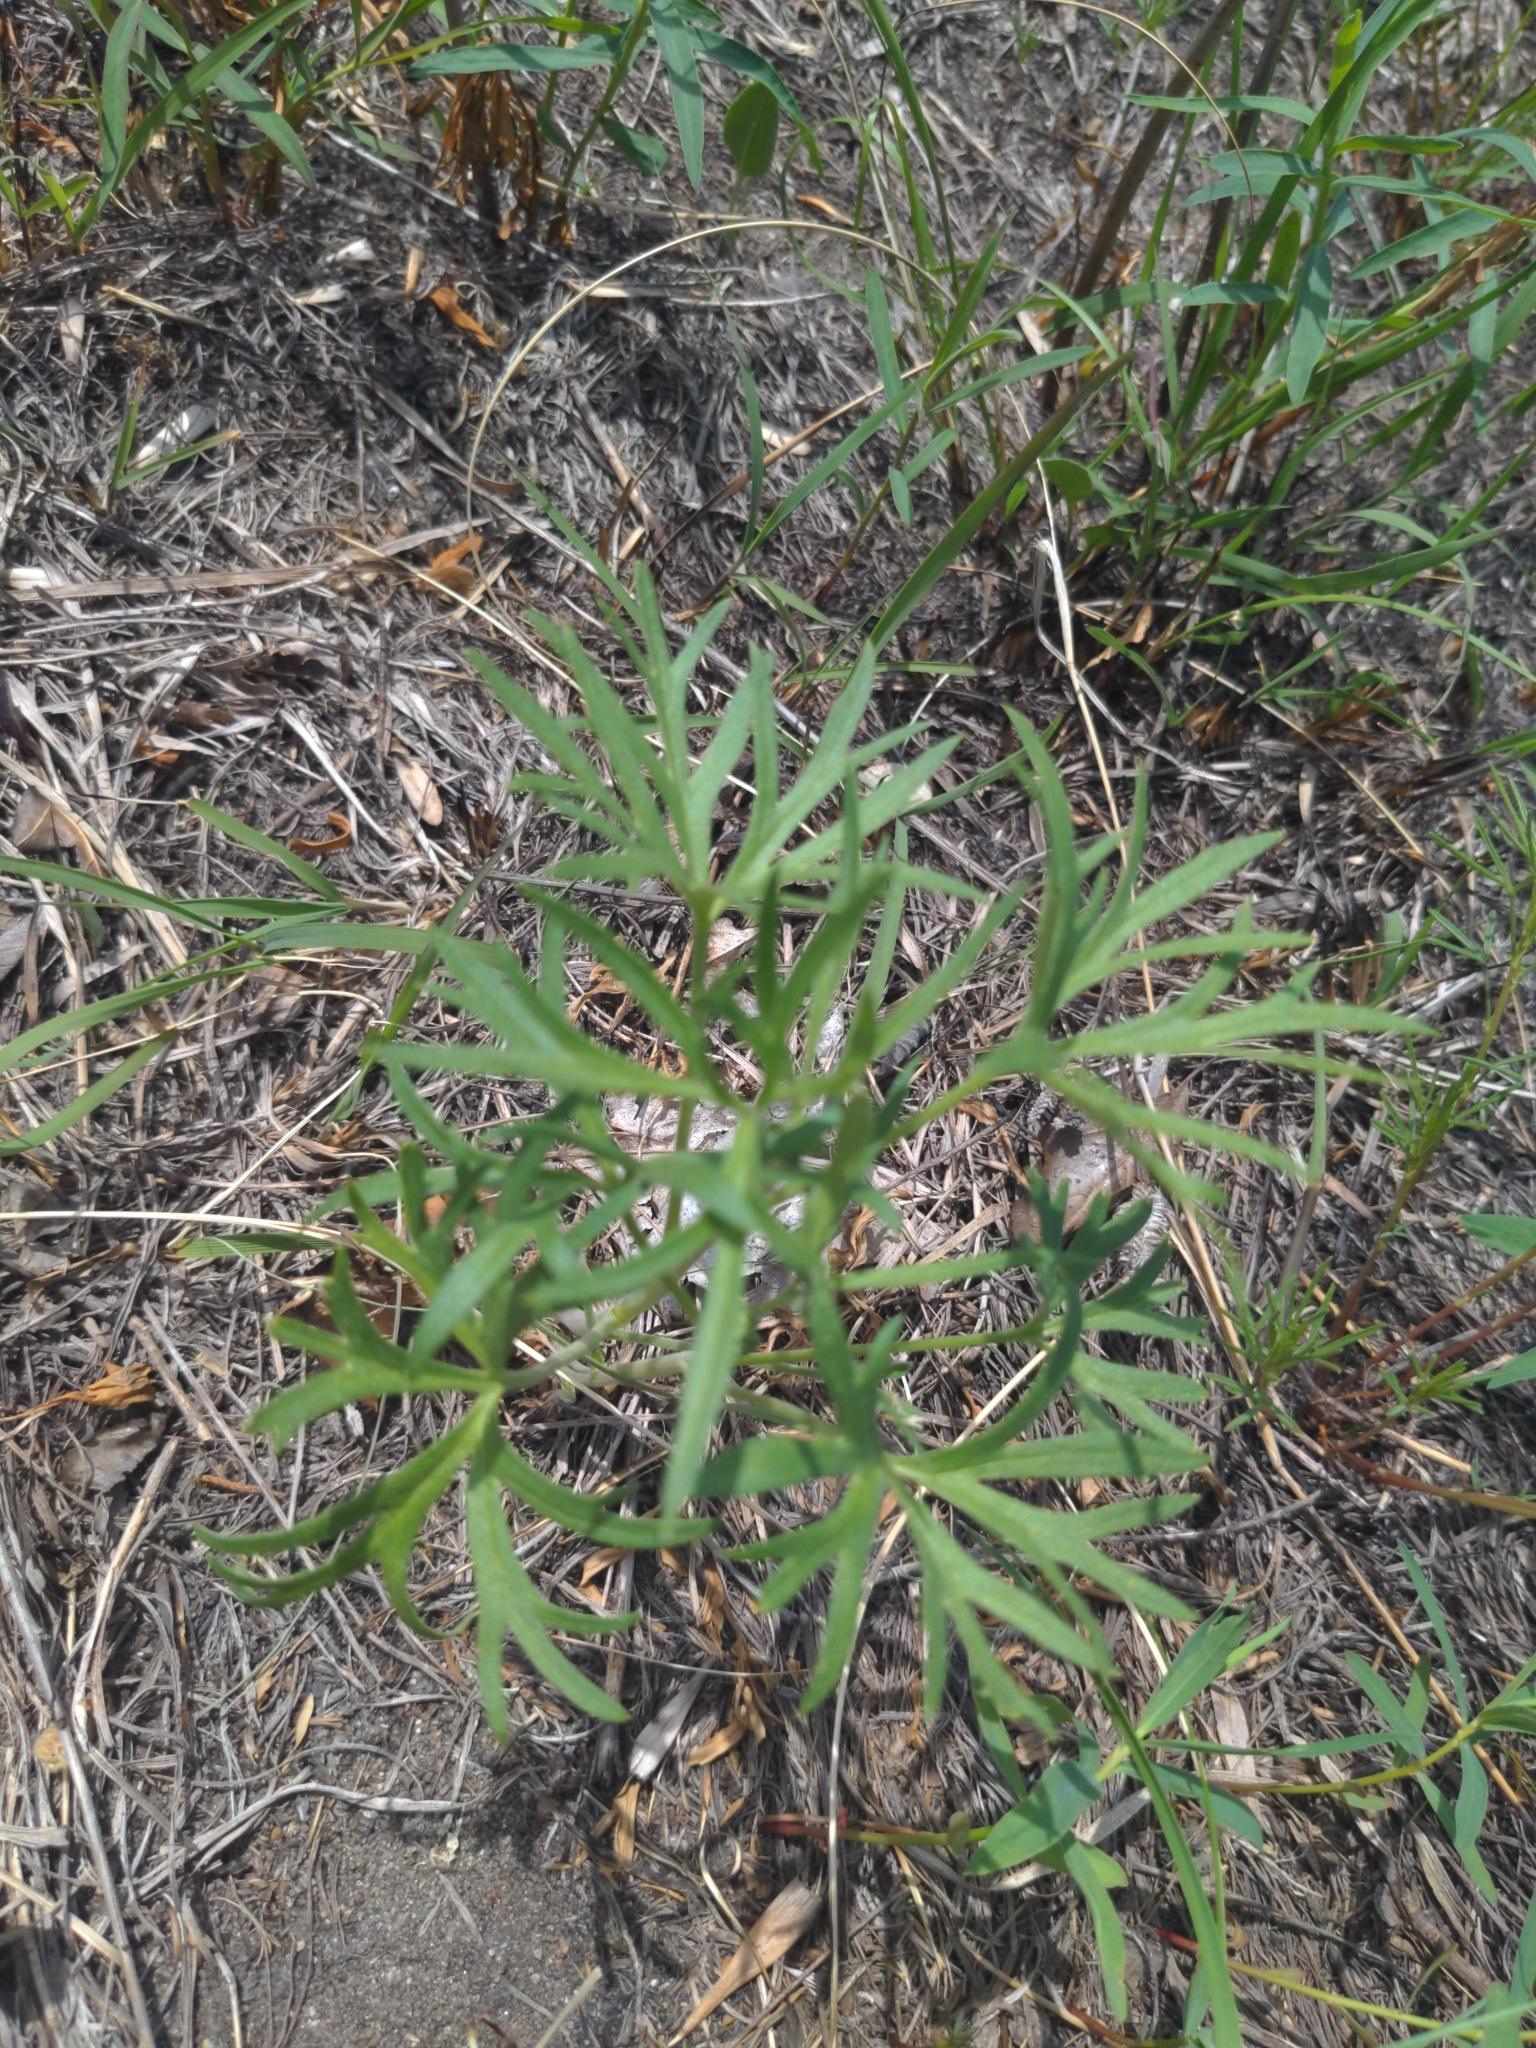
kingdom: Plantae
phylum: Tracheophyta
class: Magnoliopsida
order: Malpighiales
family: Violaceae
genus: Viola
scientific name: Viola pedatifida
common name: Prairie violet
